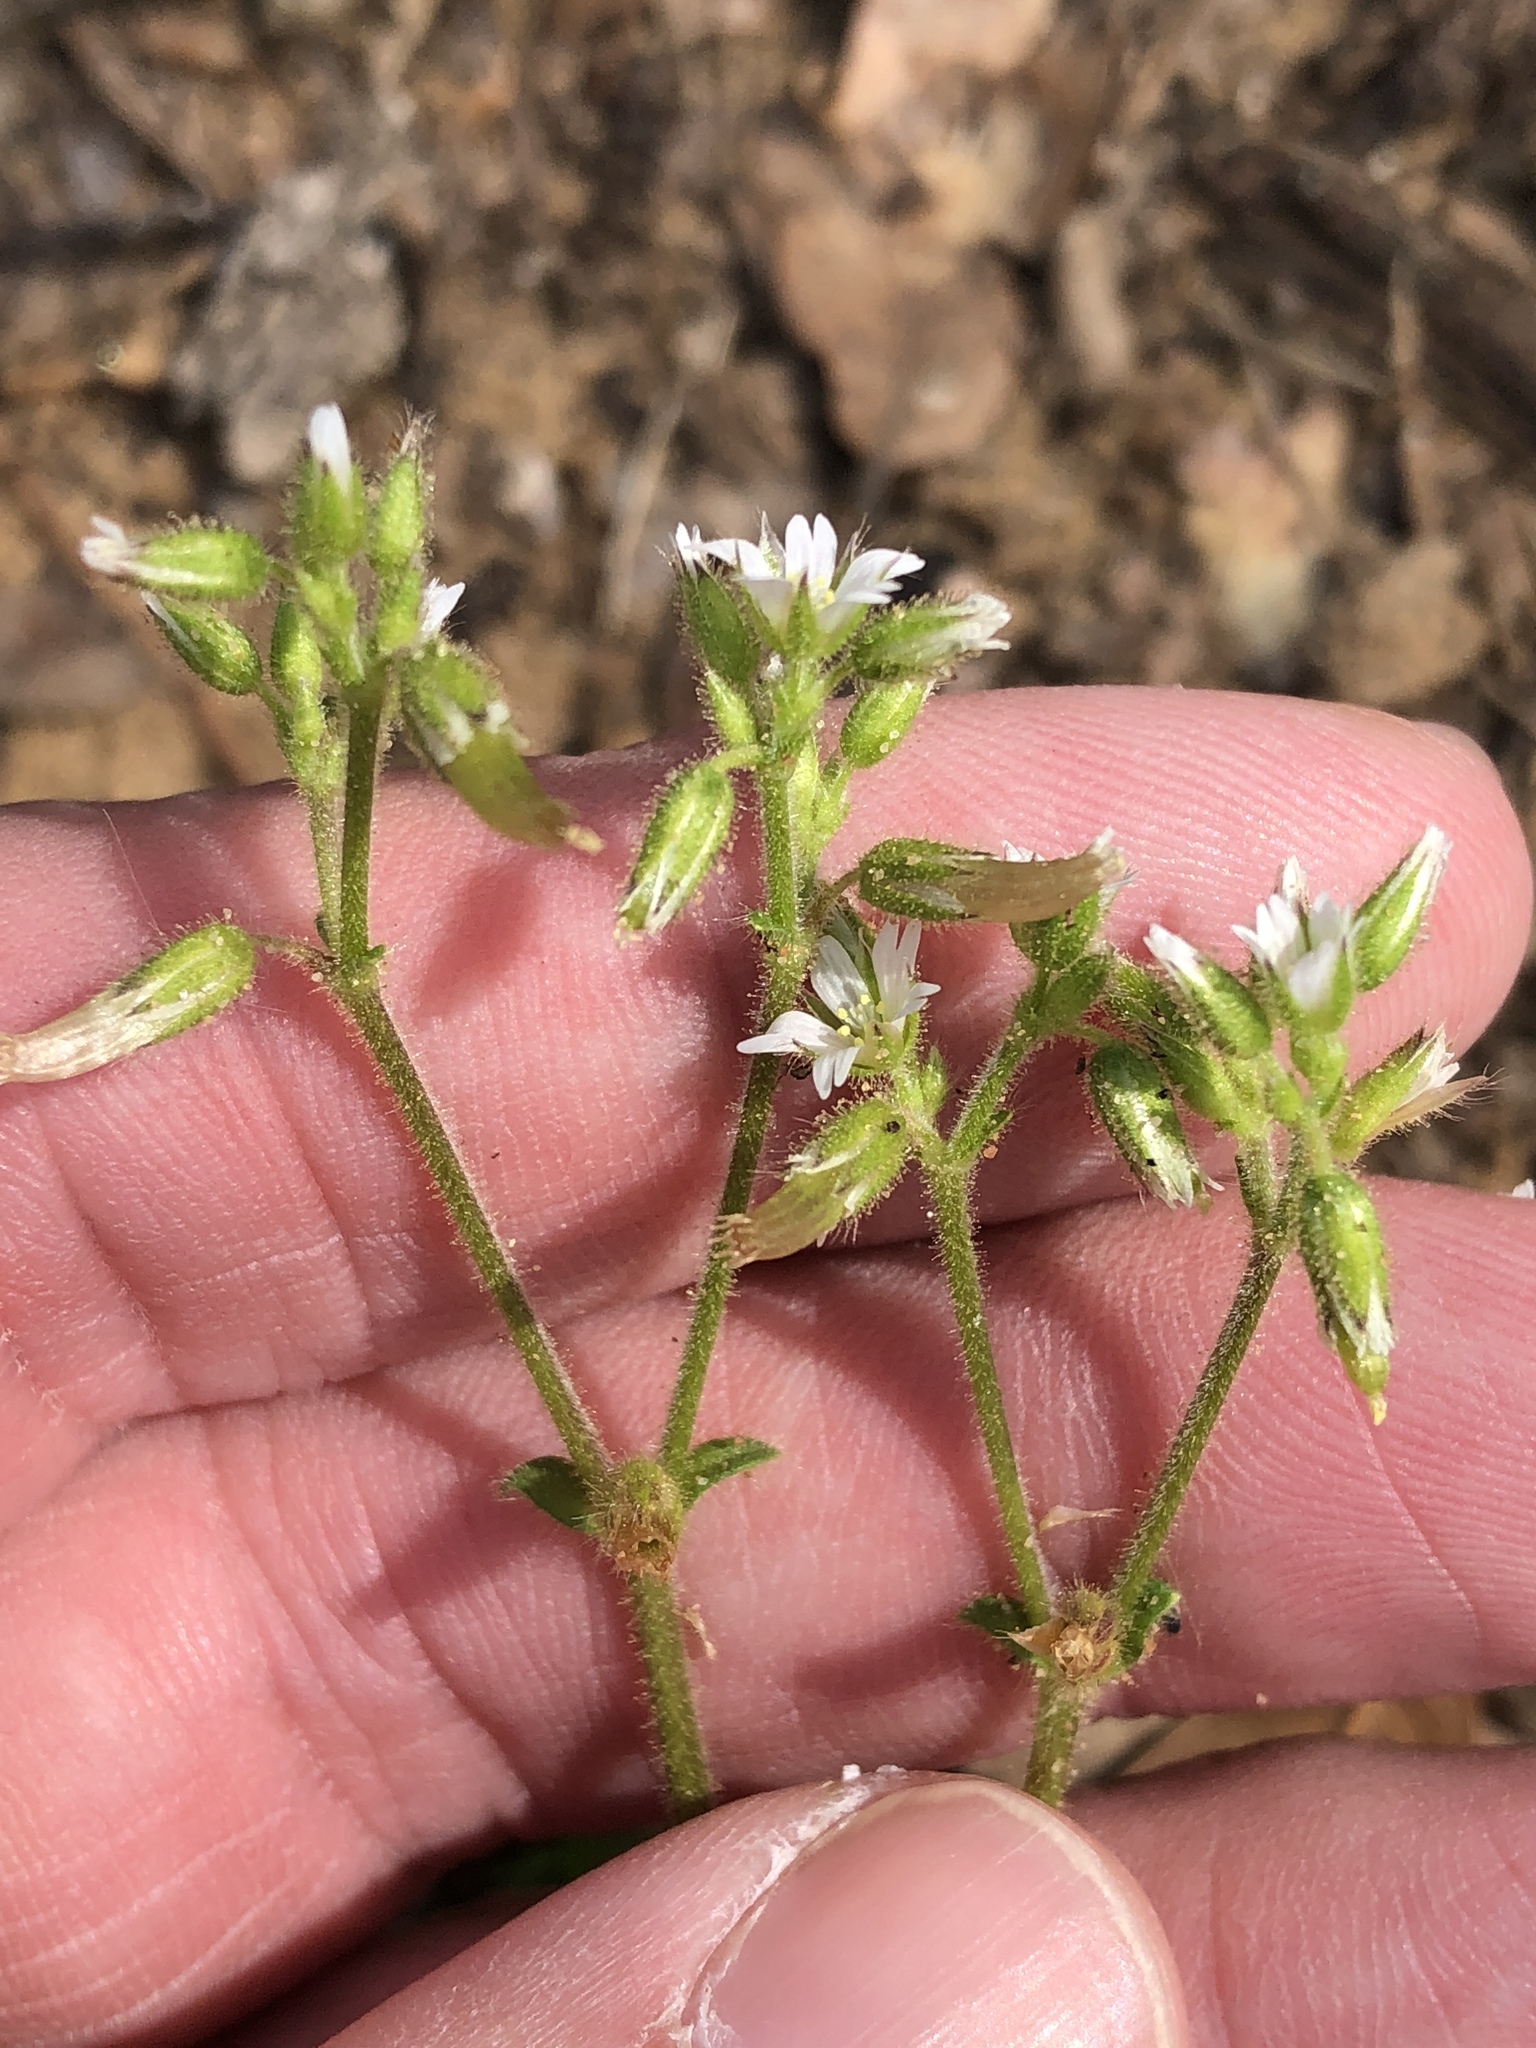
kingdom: Plantae
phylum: Tracheophyta
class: Magnoliopsida
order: Caryophyllales
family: Caryophyllaceae
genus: Cerastium
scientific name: Cerastium glomeratum
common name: Sticky chickweed
